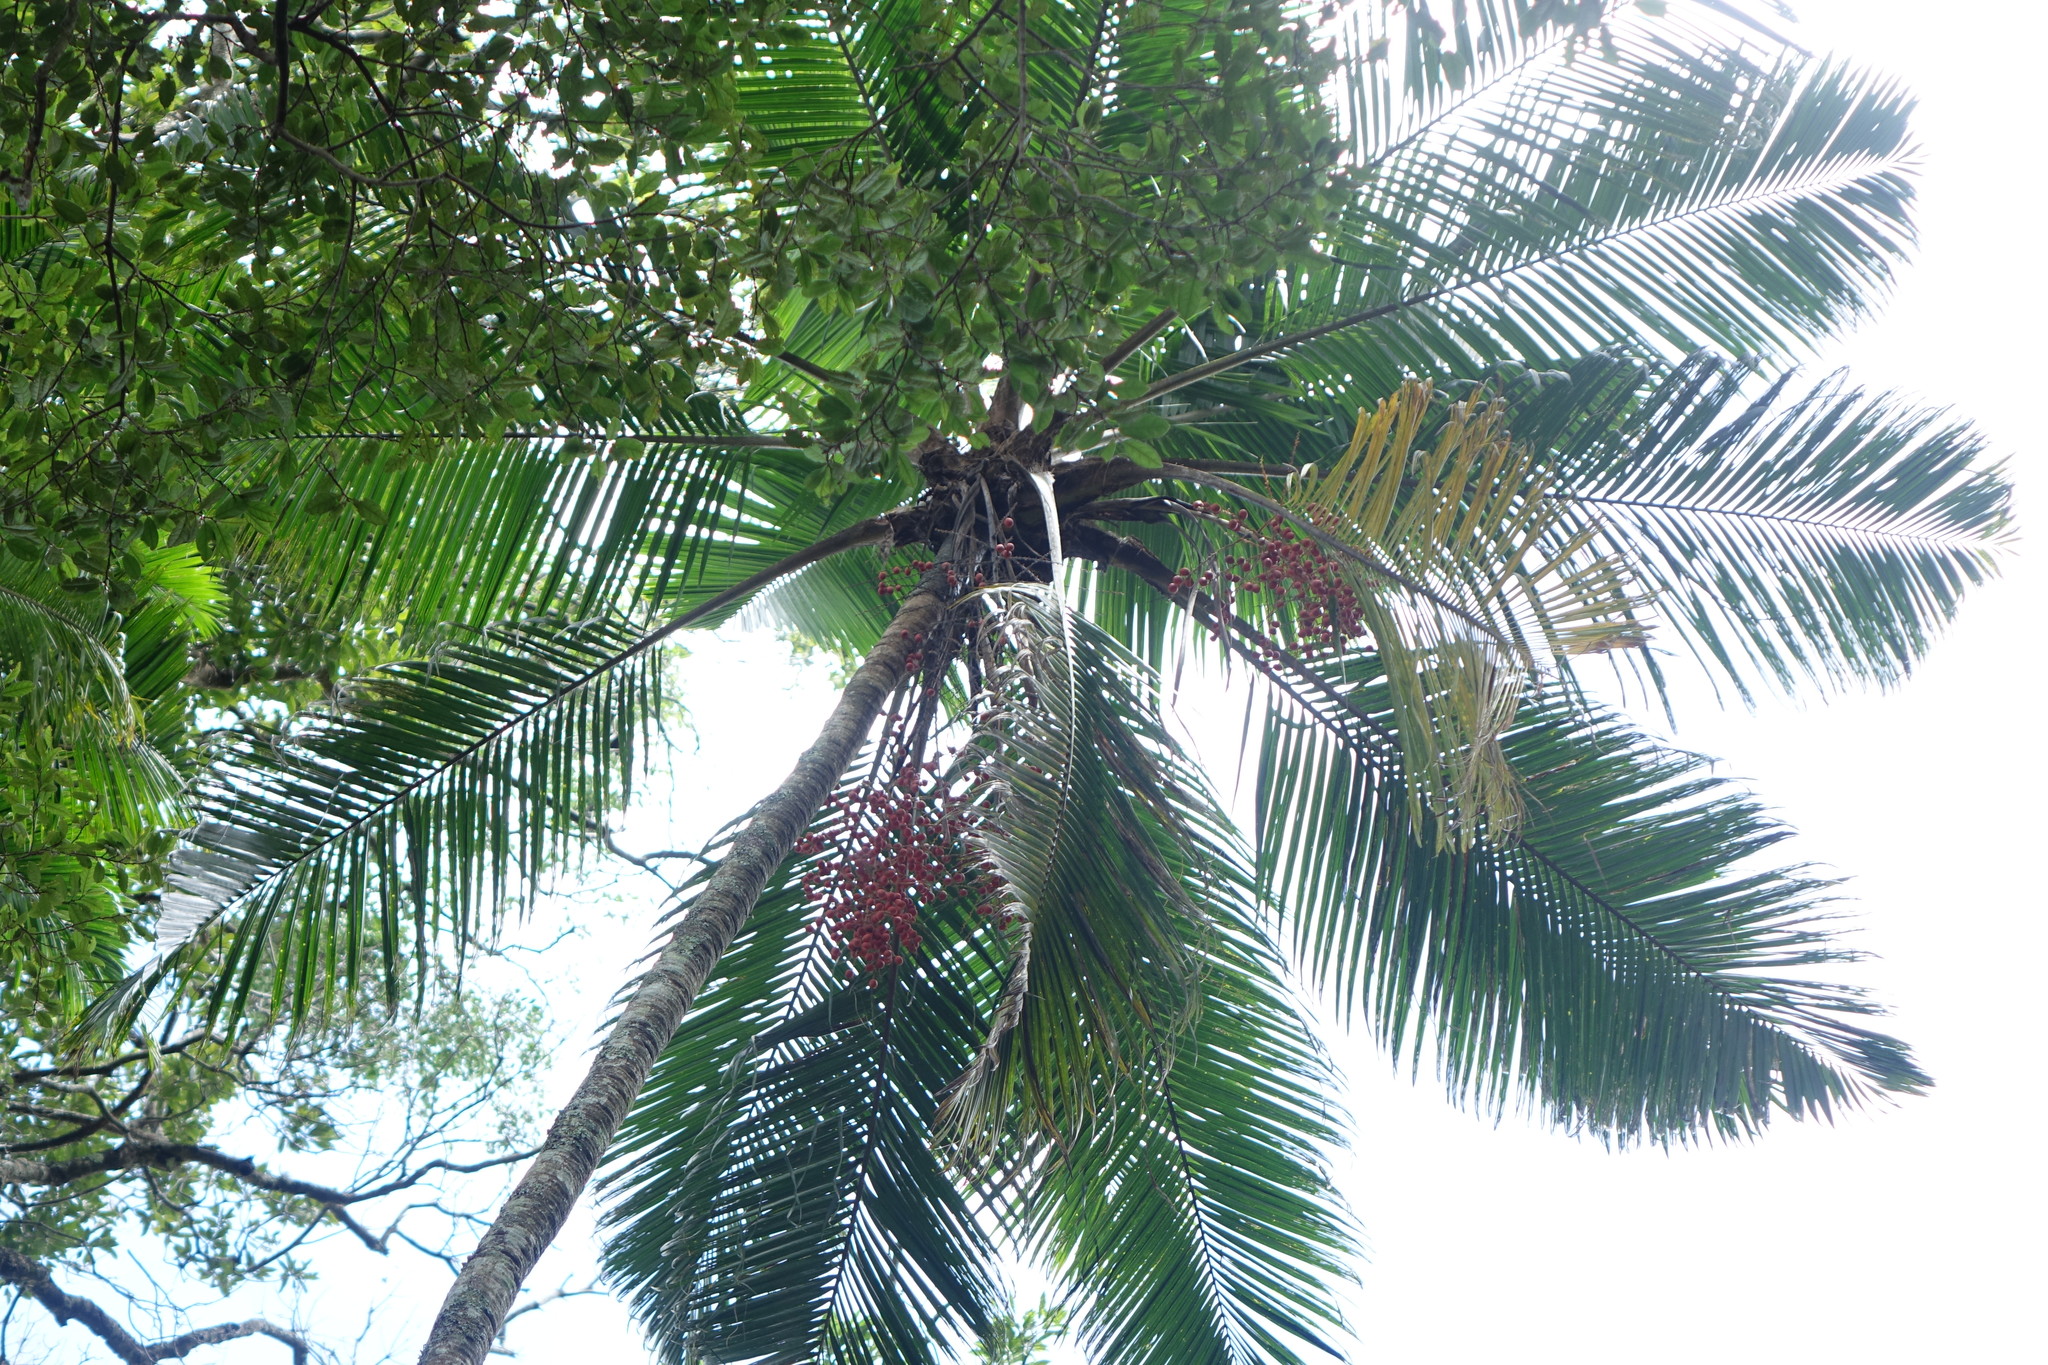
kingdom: Plantae
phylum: Tracheophyta
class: Liliopsida
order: Arecales
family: Arecaceae
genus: Ravenea
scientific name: Ravenea madagascariensis
